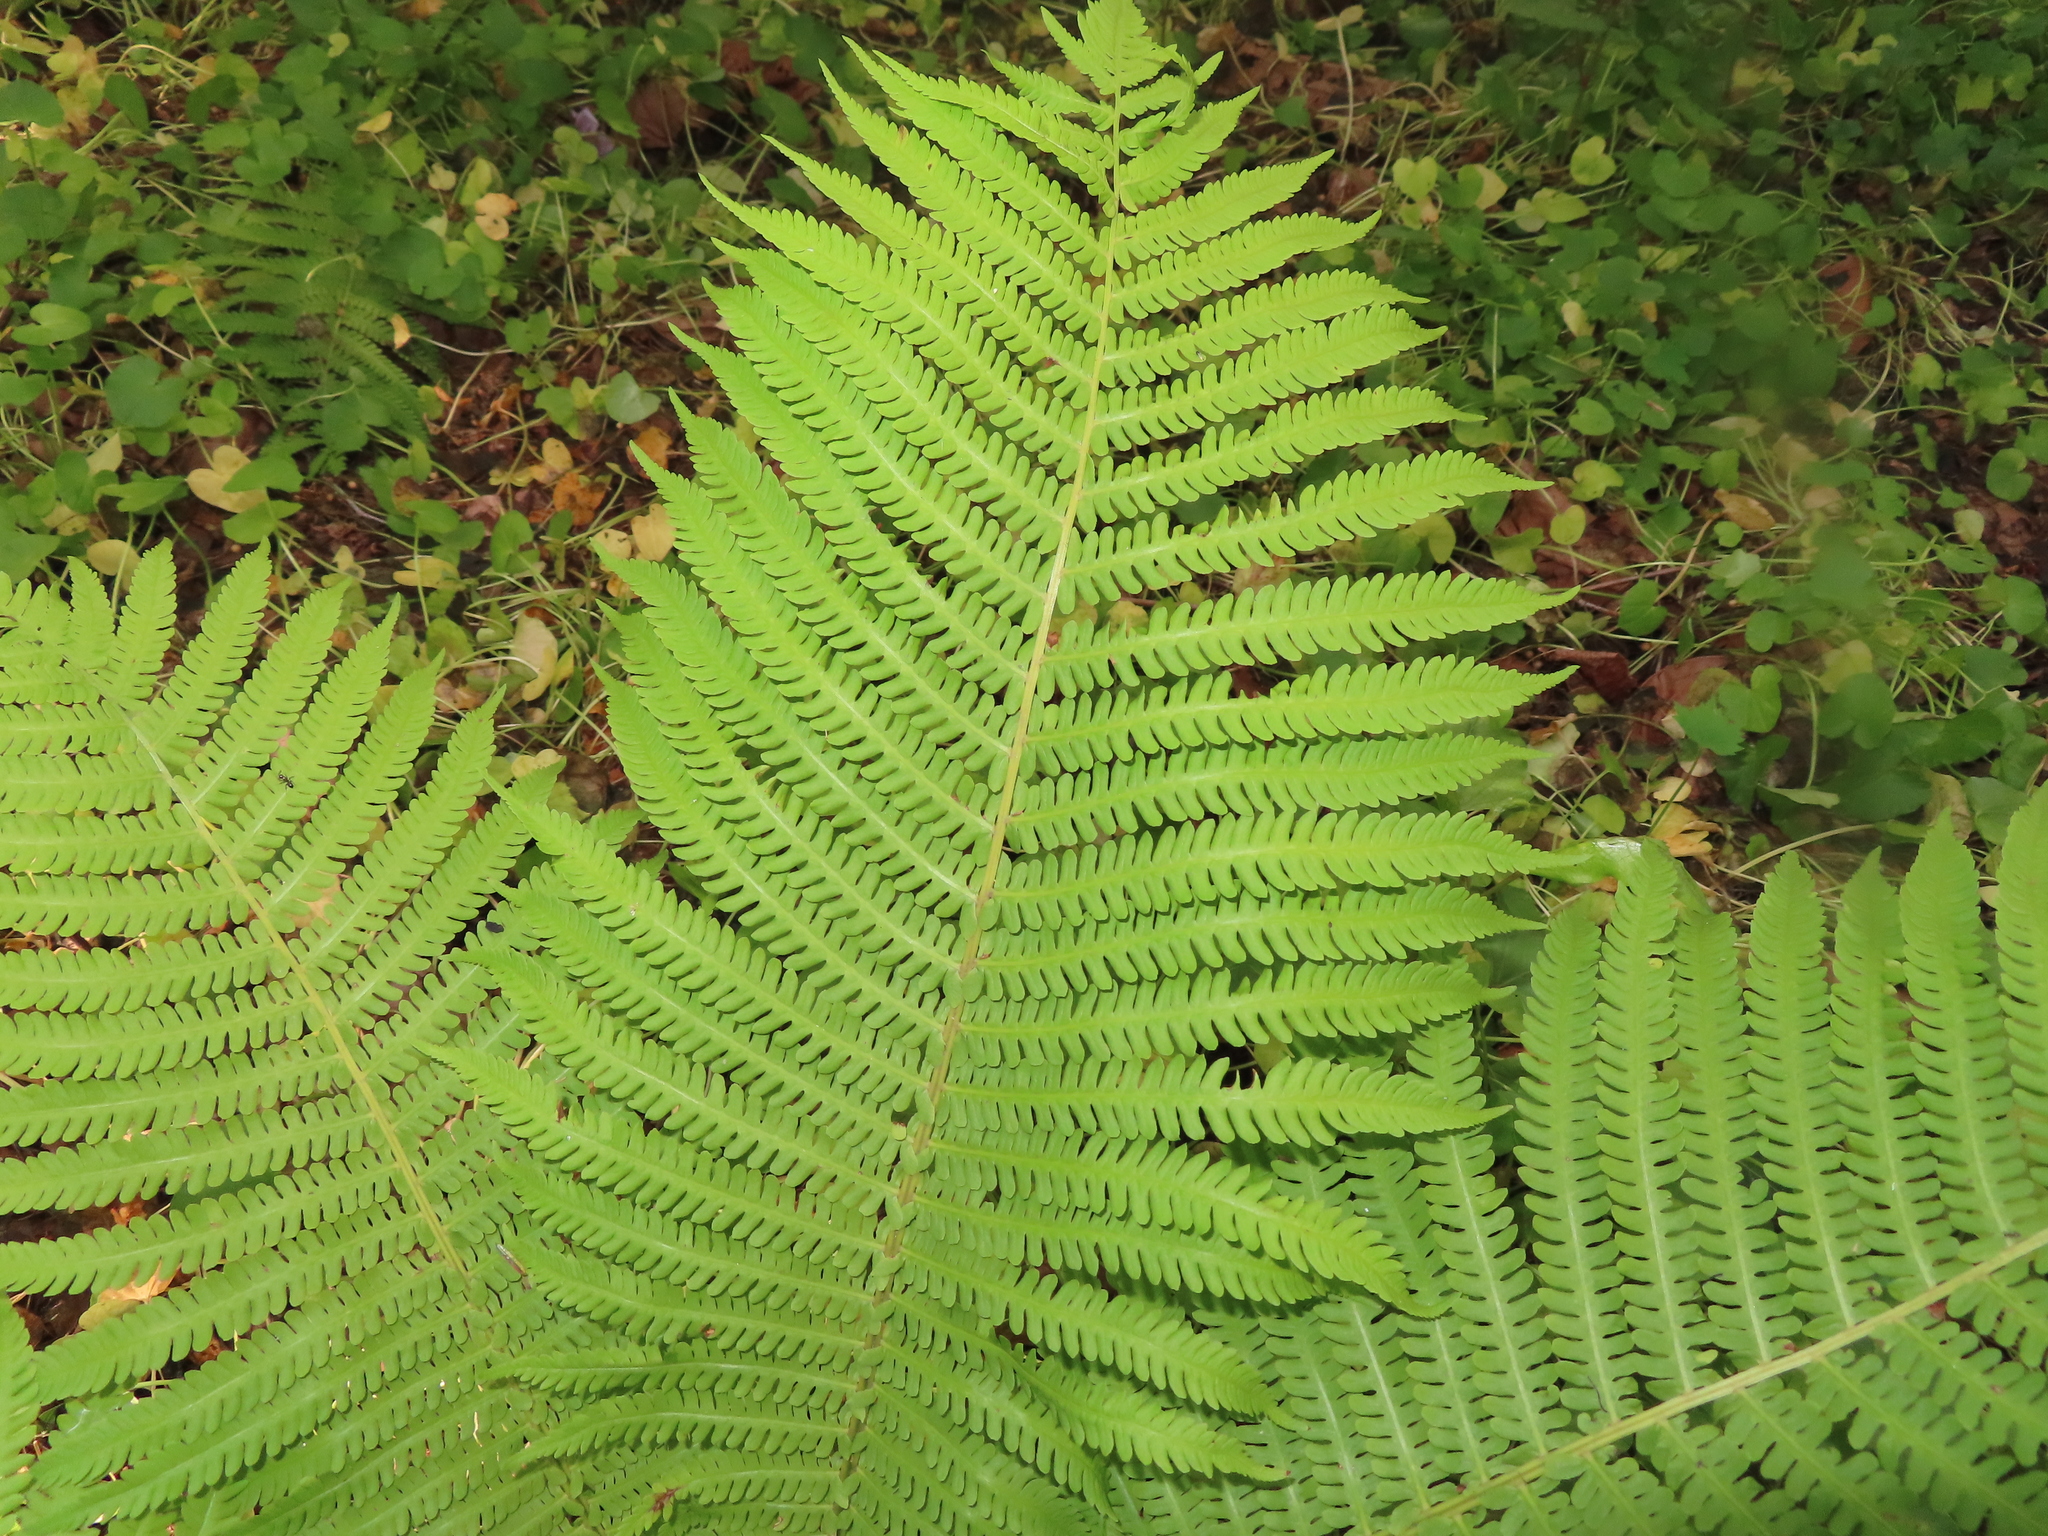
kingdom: Plantae
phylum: Tracheophyta
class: Polypodiopsida
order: Polypodiales
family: Onocleaceae
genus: Matteuccia
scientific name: Matteuccia struthiopteris
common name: Ostrich fern
